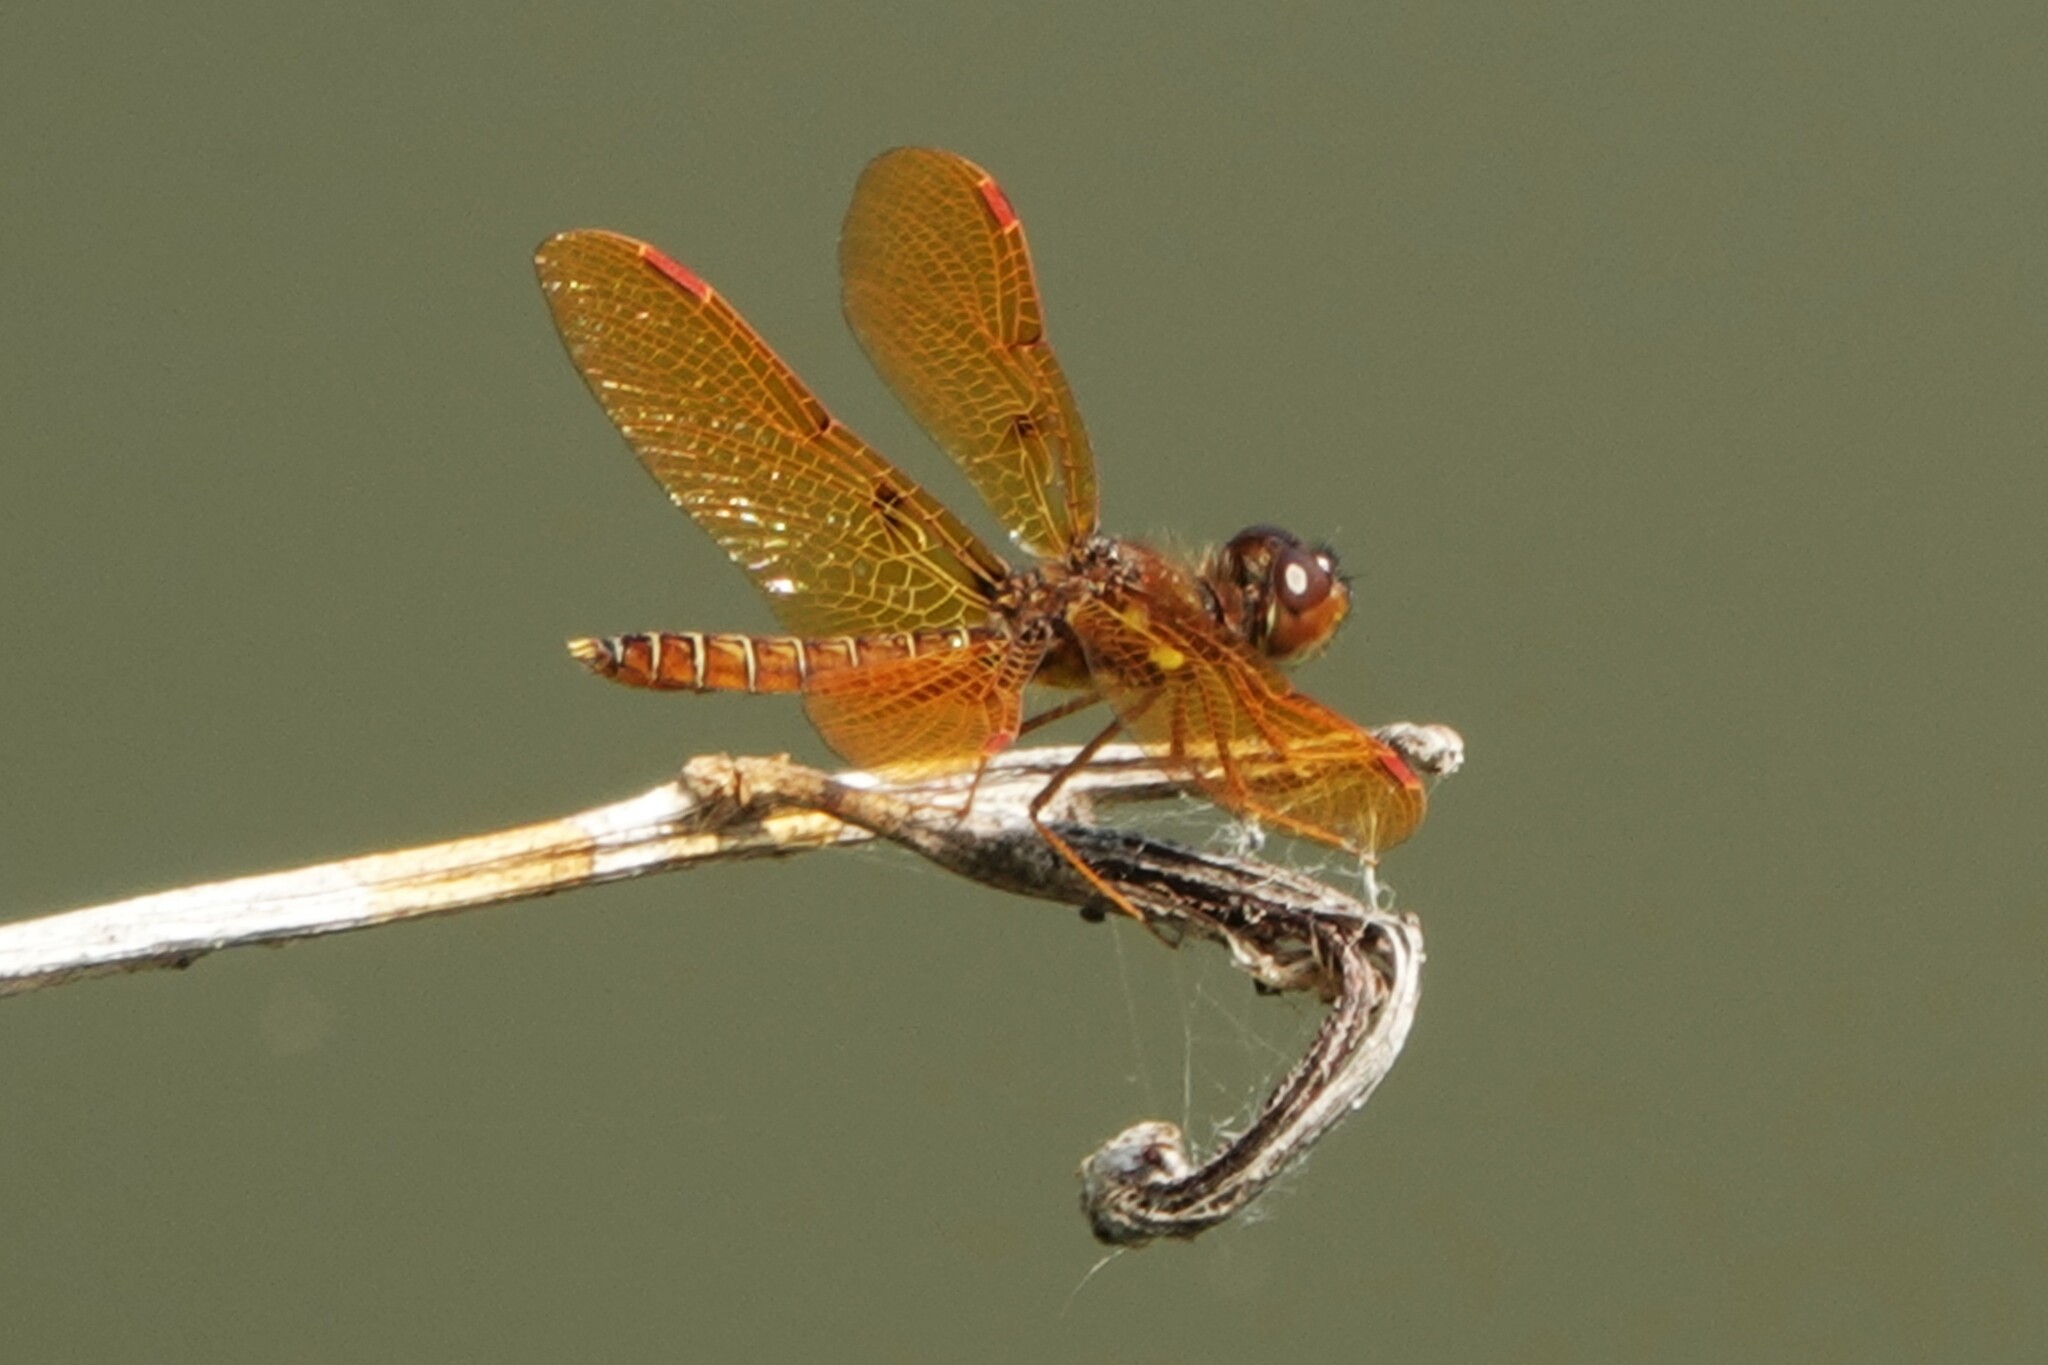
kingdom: Animalia
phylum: Arthropoda
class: Insecta
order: Odonata
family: Libellulidae
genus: Perithemis
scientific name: Perithemis tenera
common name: Eastern amberwing
